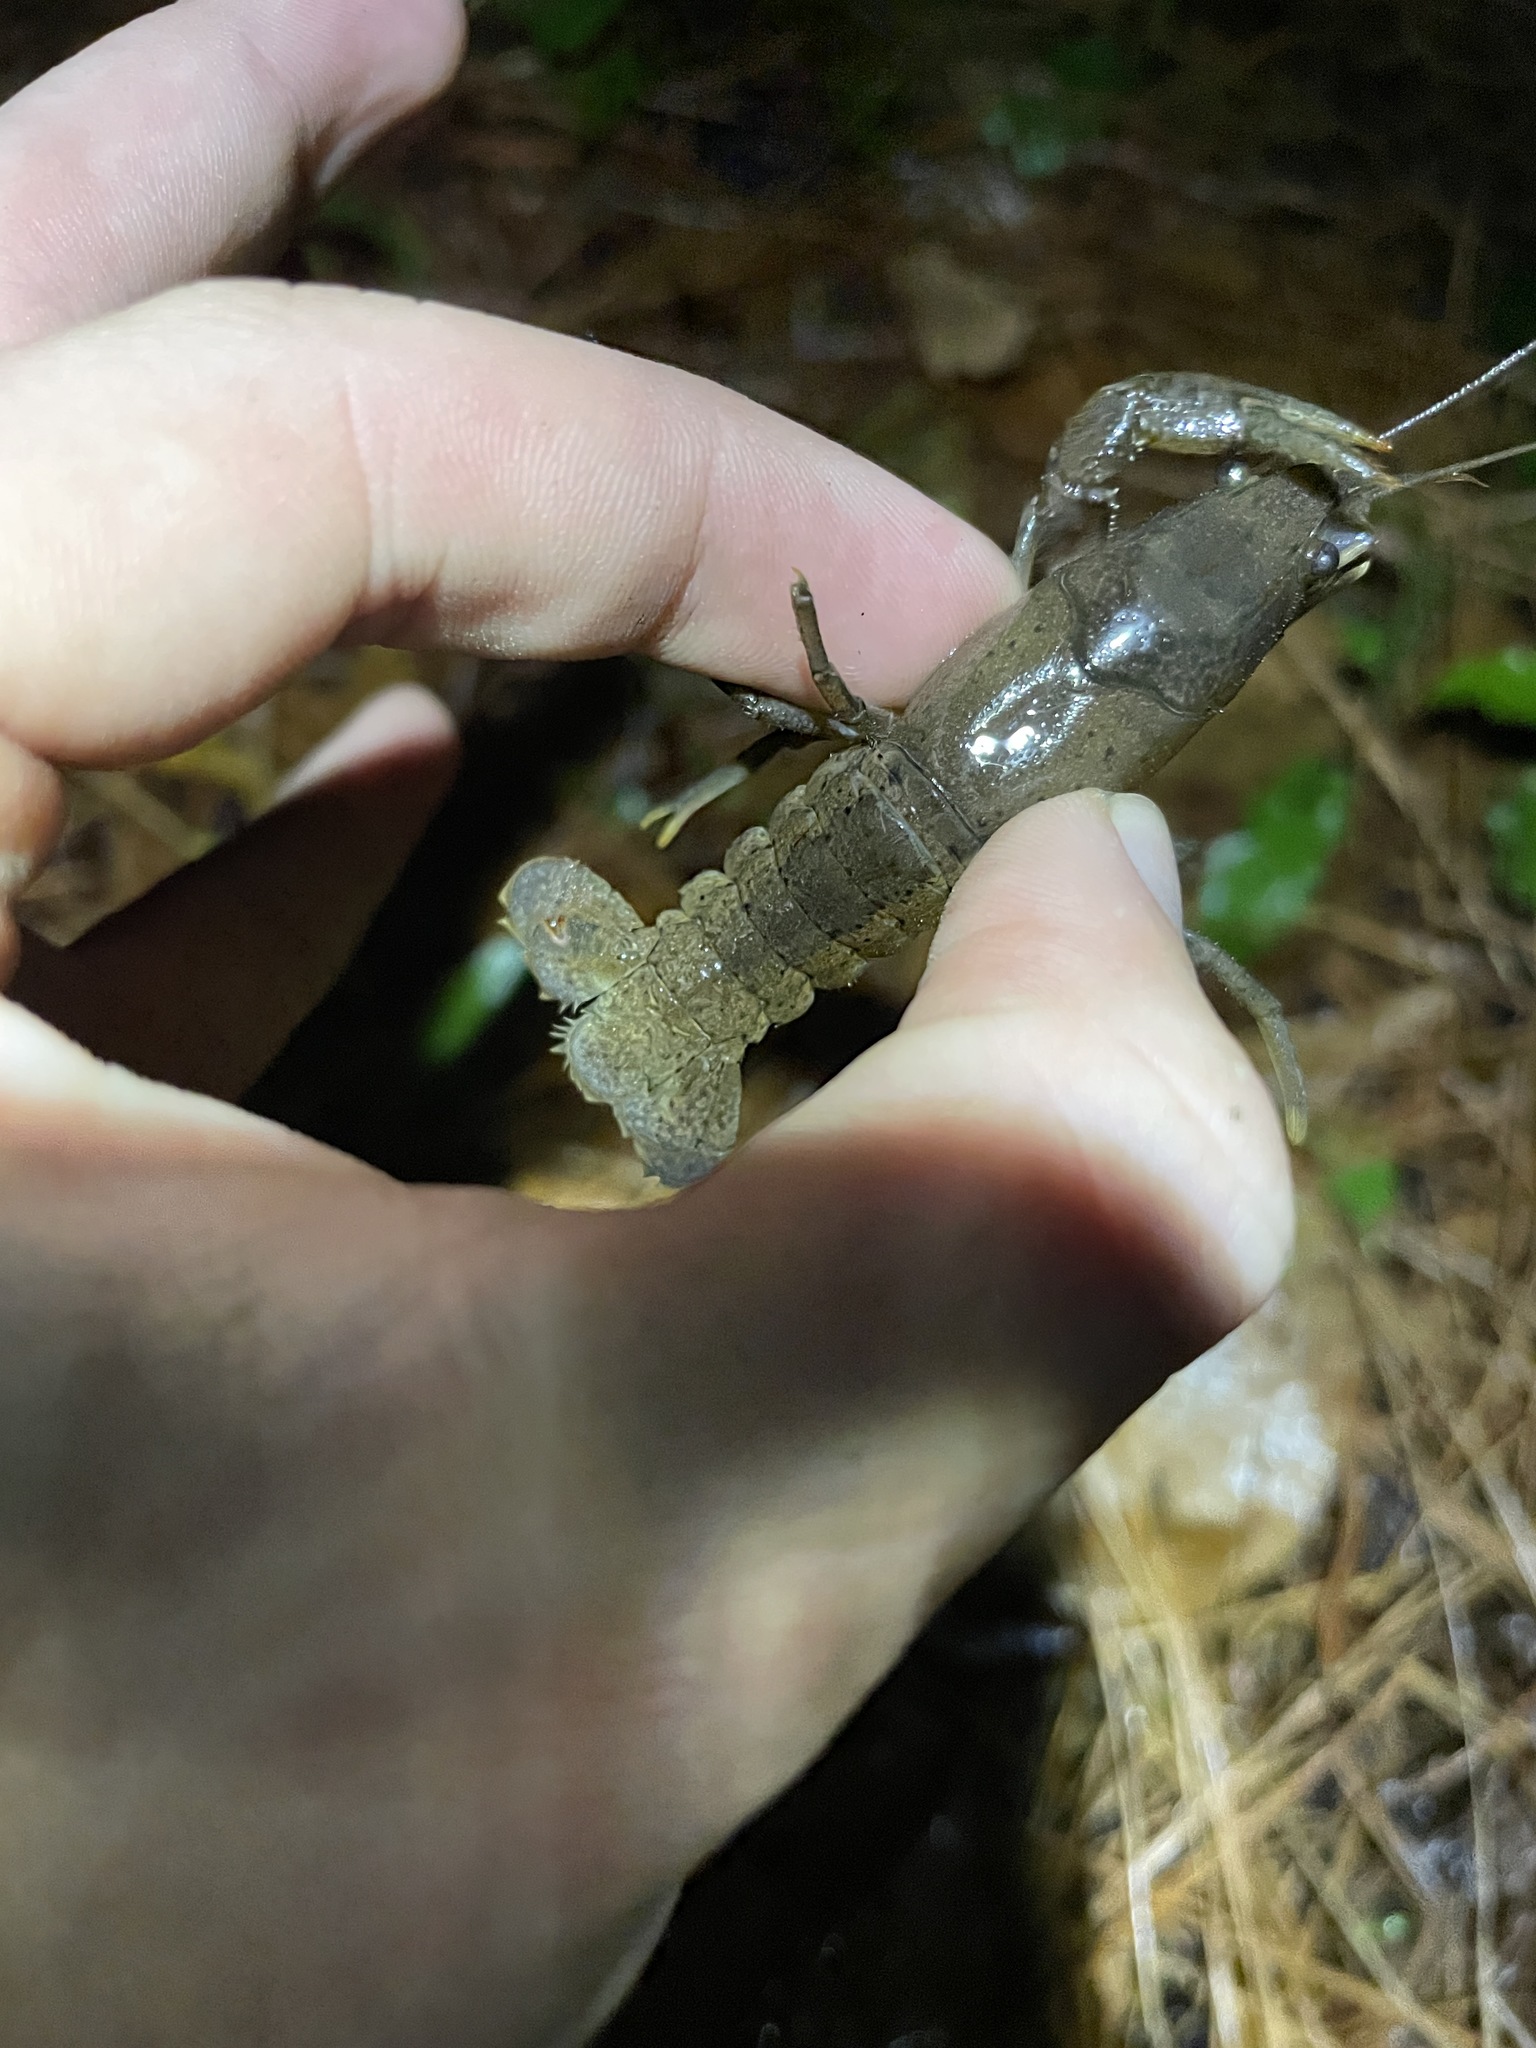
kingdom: Animalia
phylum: Arthropoda
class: Malacostraca
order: Decapoda
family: Cambaridae
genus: Procambarus
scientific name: Procambarus planirostris
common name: Flatnose crayfish
